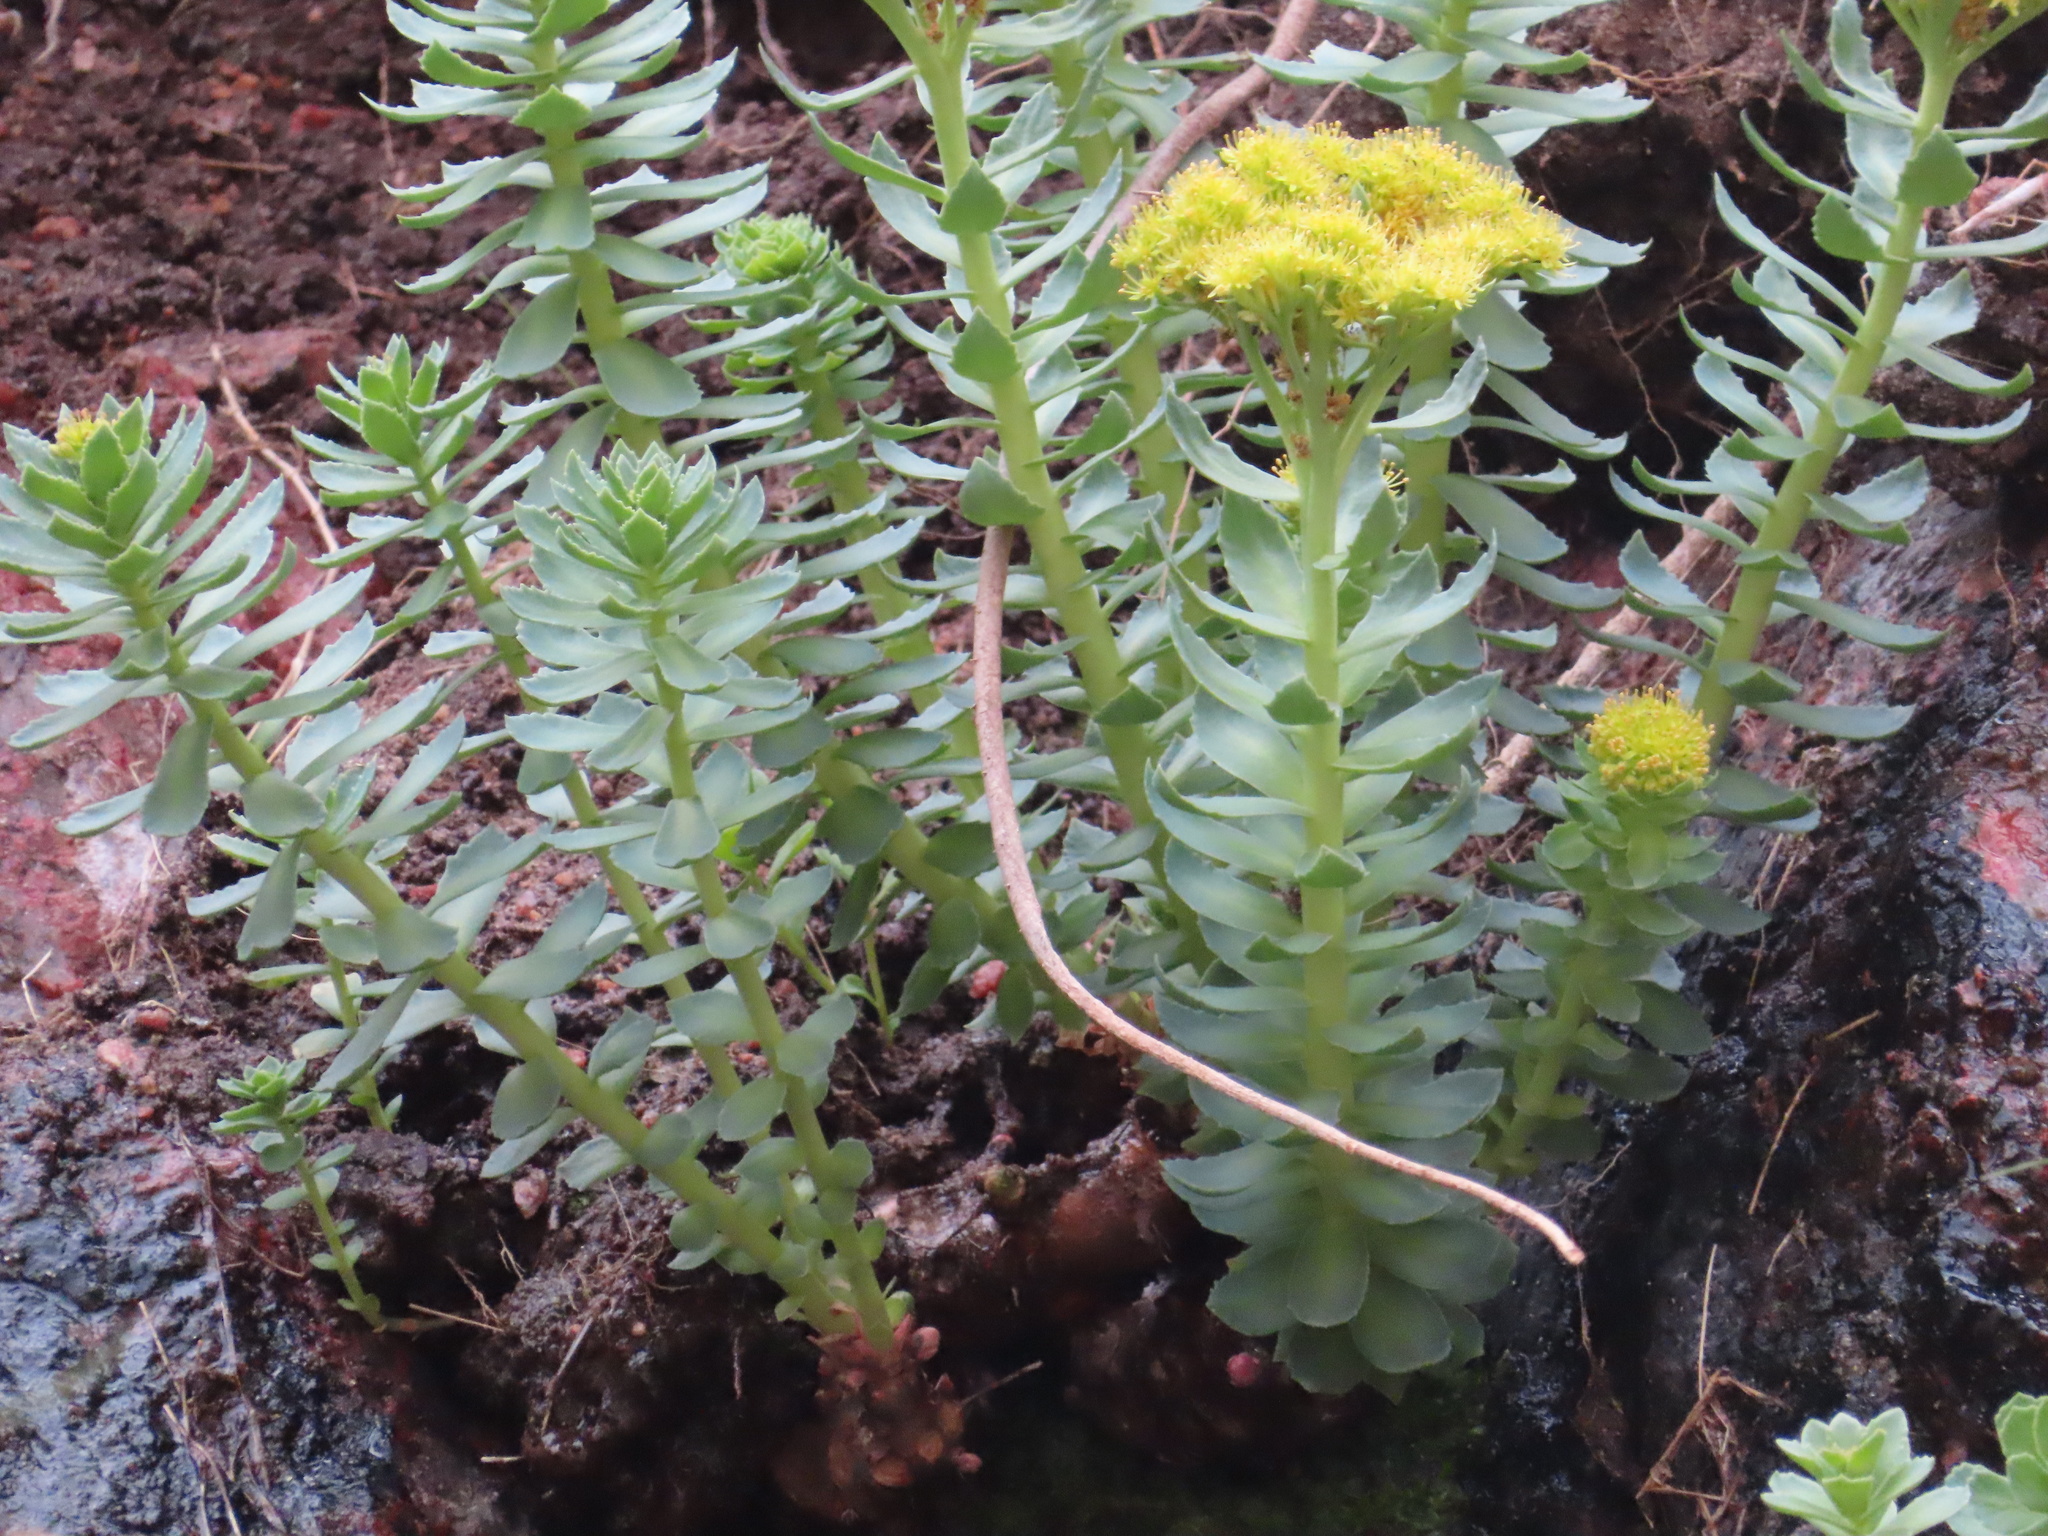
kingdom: Plantae
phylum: Tracheophyta
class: Magnoliopsida
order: Saxifragales
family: Crassulaceae
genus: Rhodiola
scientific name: Rhodiola rosea
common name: Roseroot
